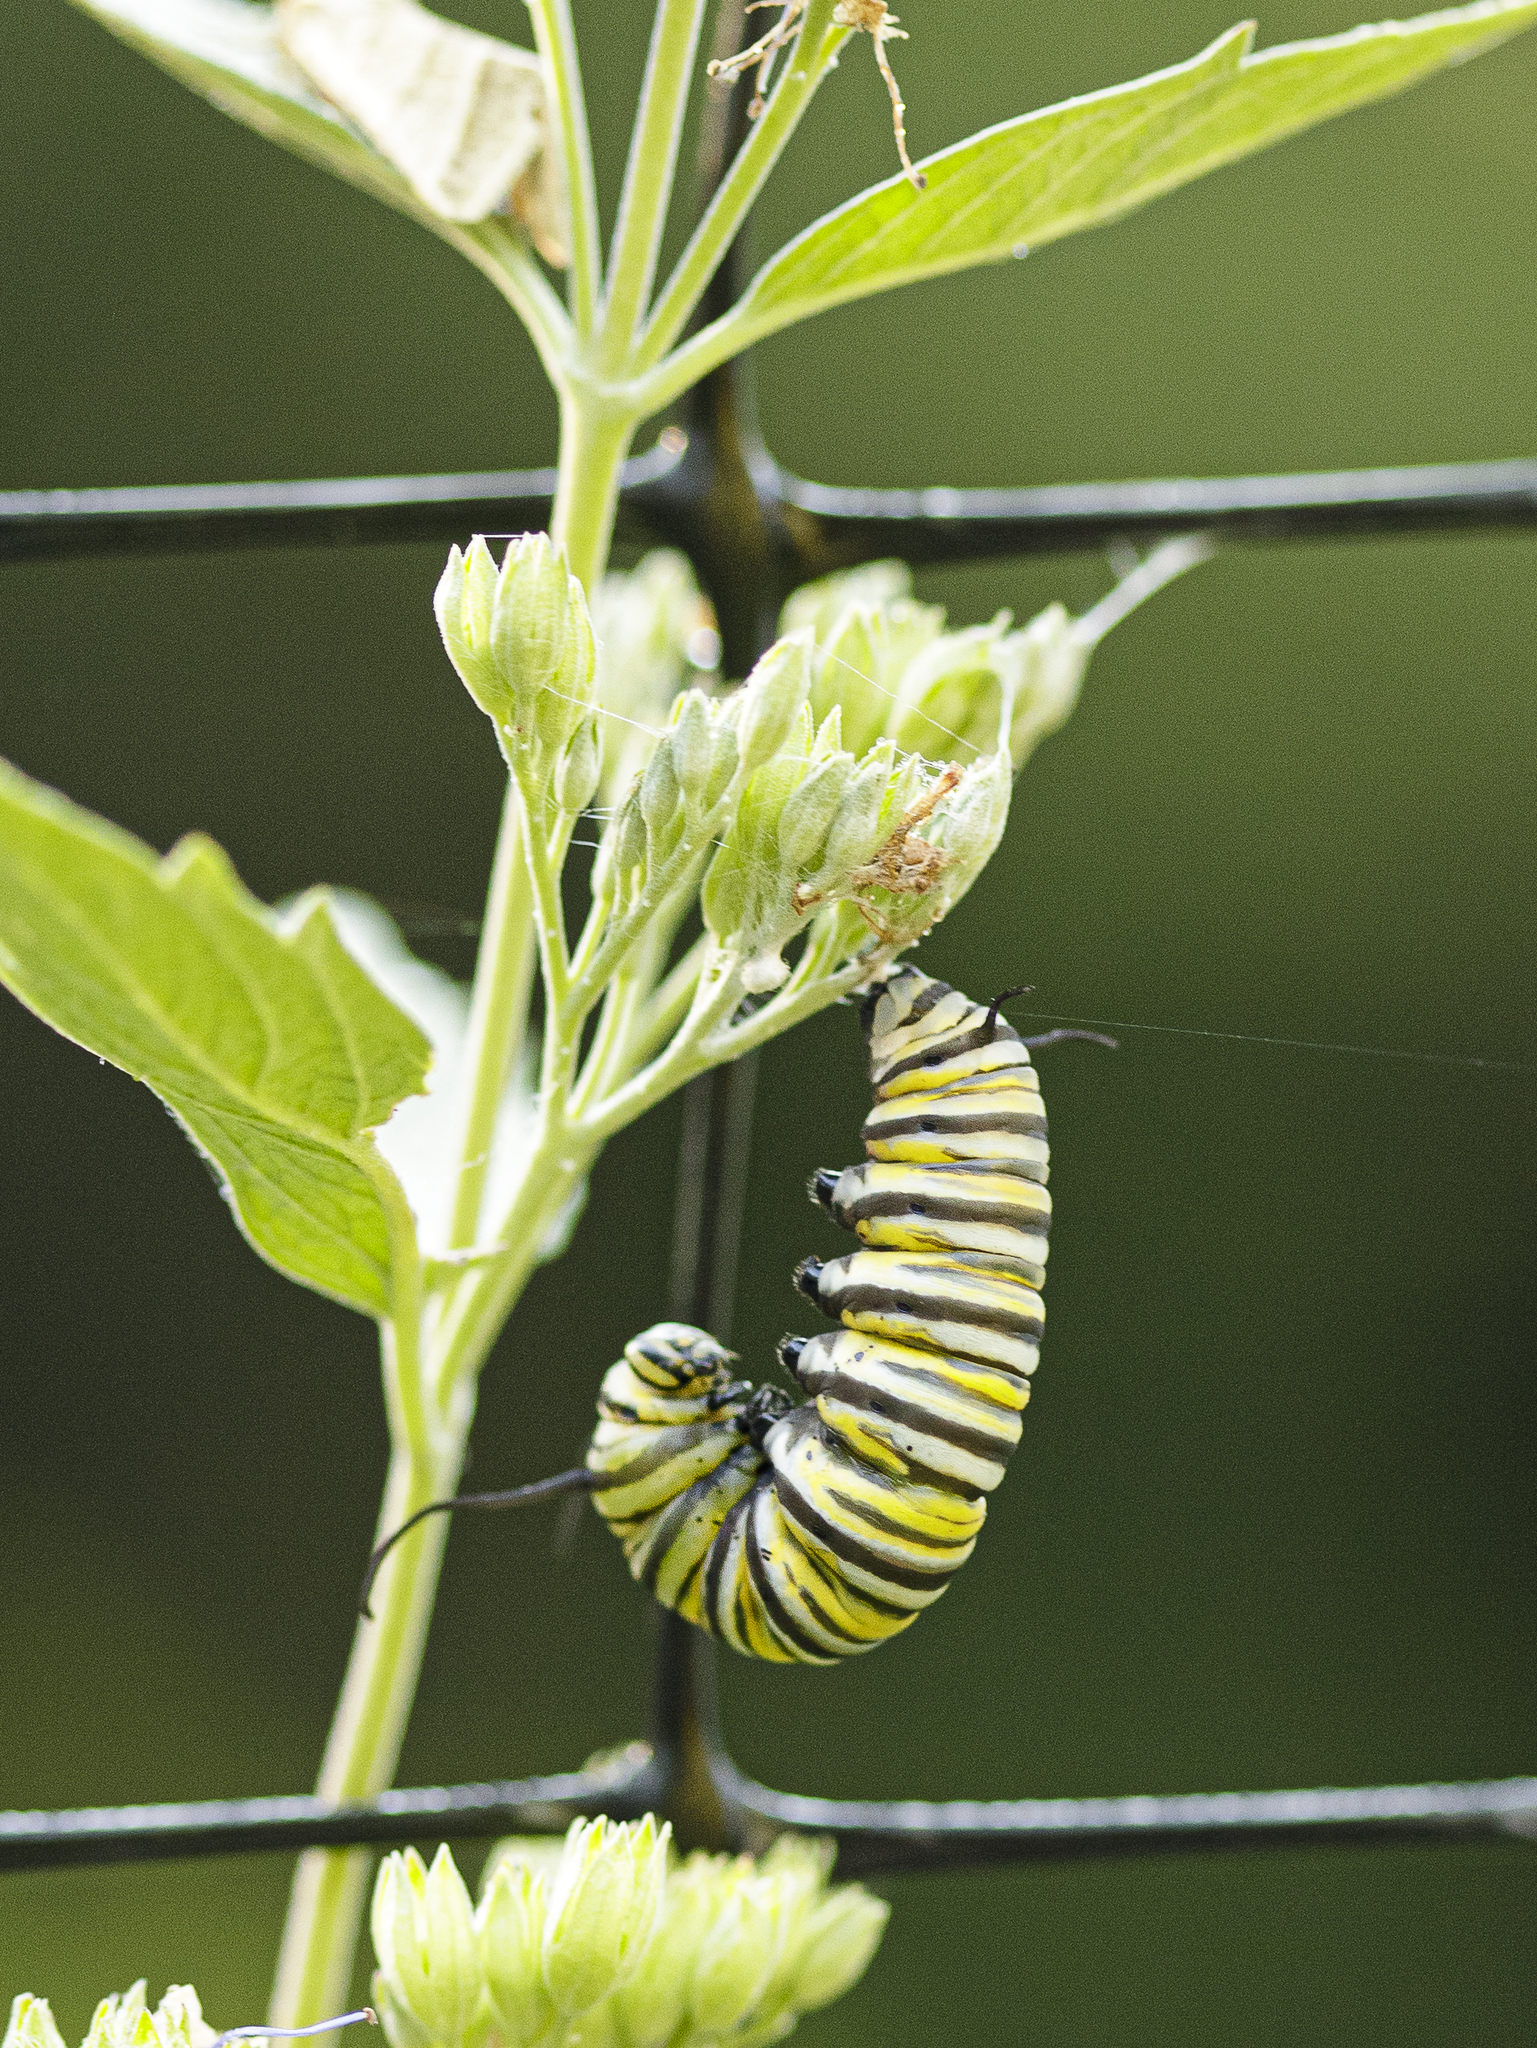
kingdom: Animalia
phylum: Arthropoda
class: Insecta
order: Lepidoptera
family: Nymphalidae
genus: Danaus
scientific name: Danaus plexippus
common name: Monarch
